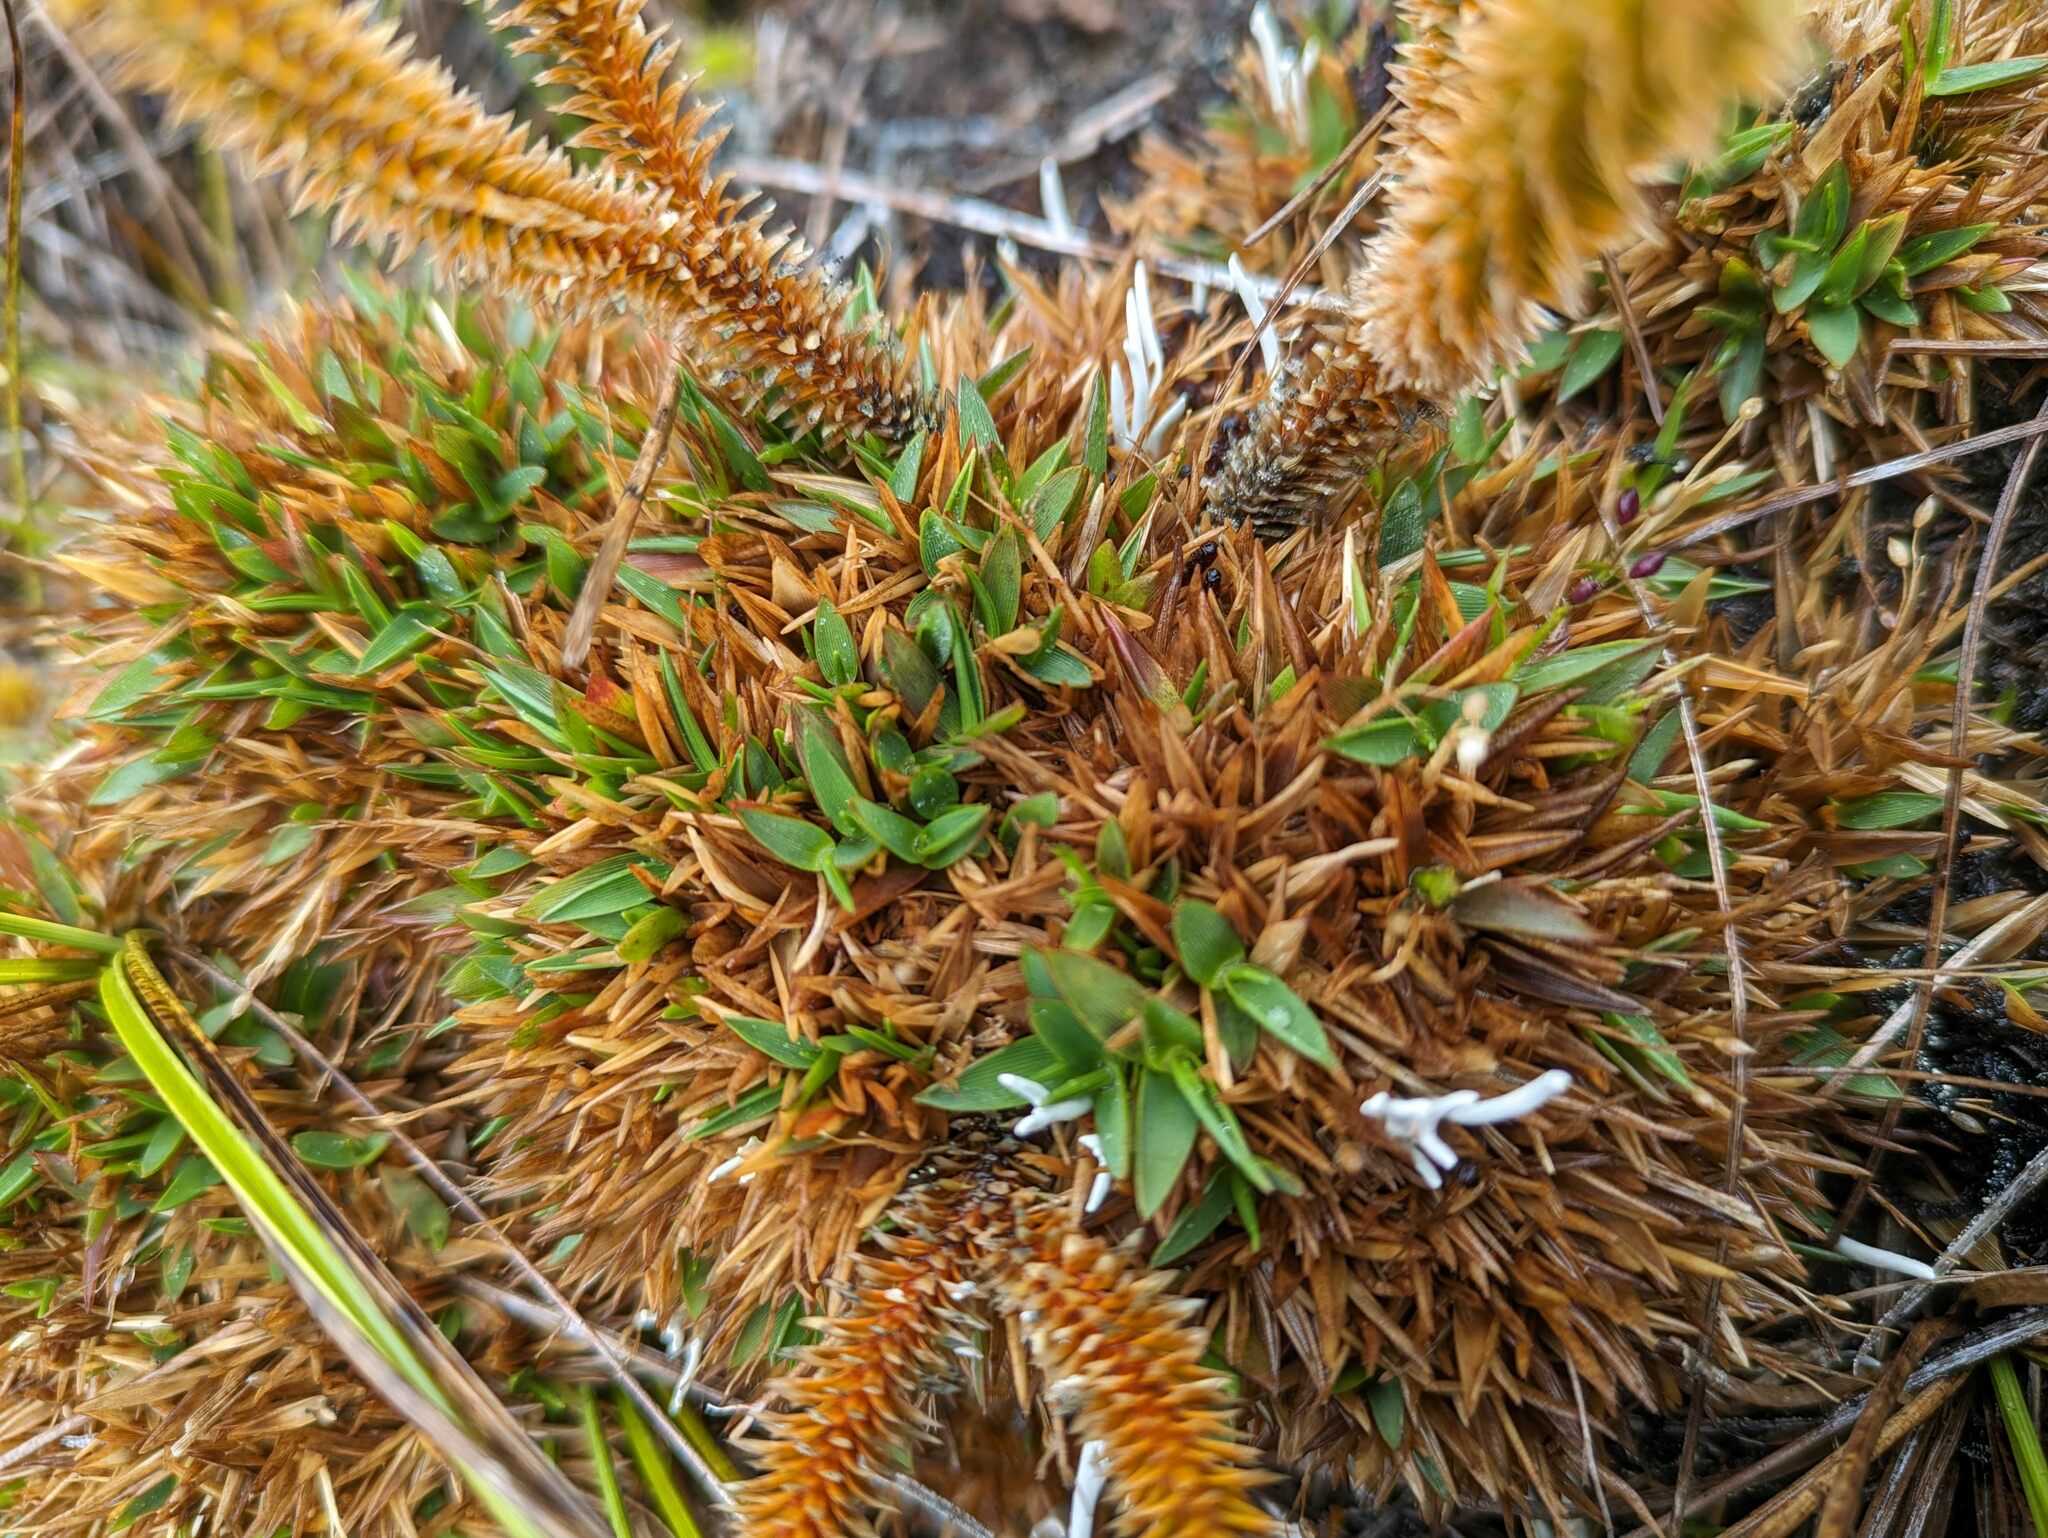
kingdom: Plantae
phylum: Tracheophyta
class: Liliopsida
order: Poales
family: Poaceae
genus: Dichanthelium
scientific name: Dichanthelium cynodon
